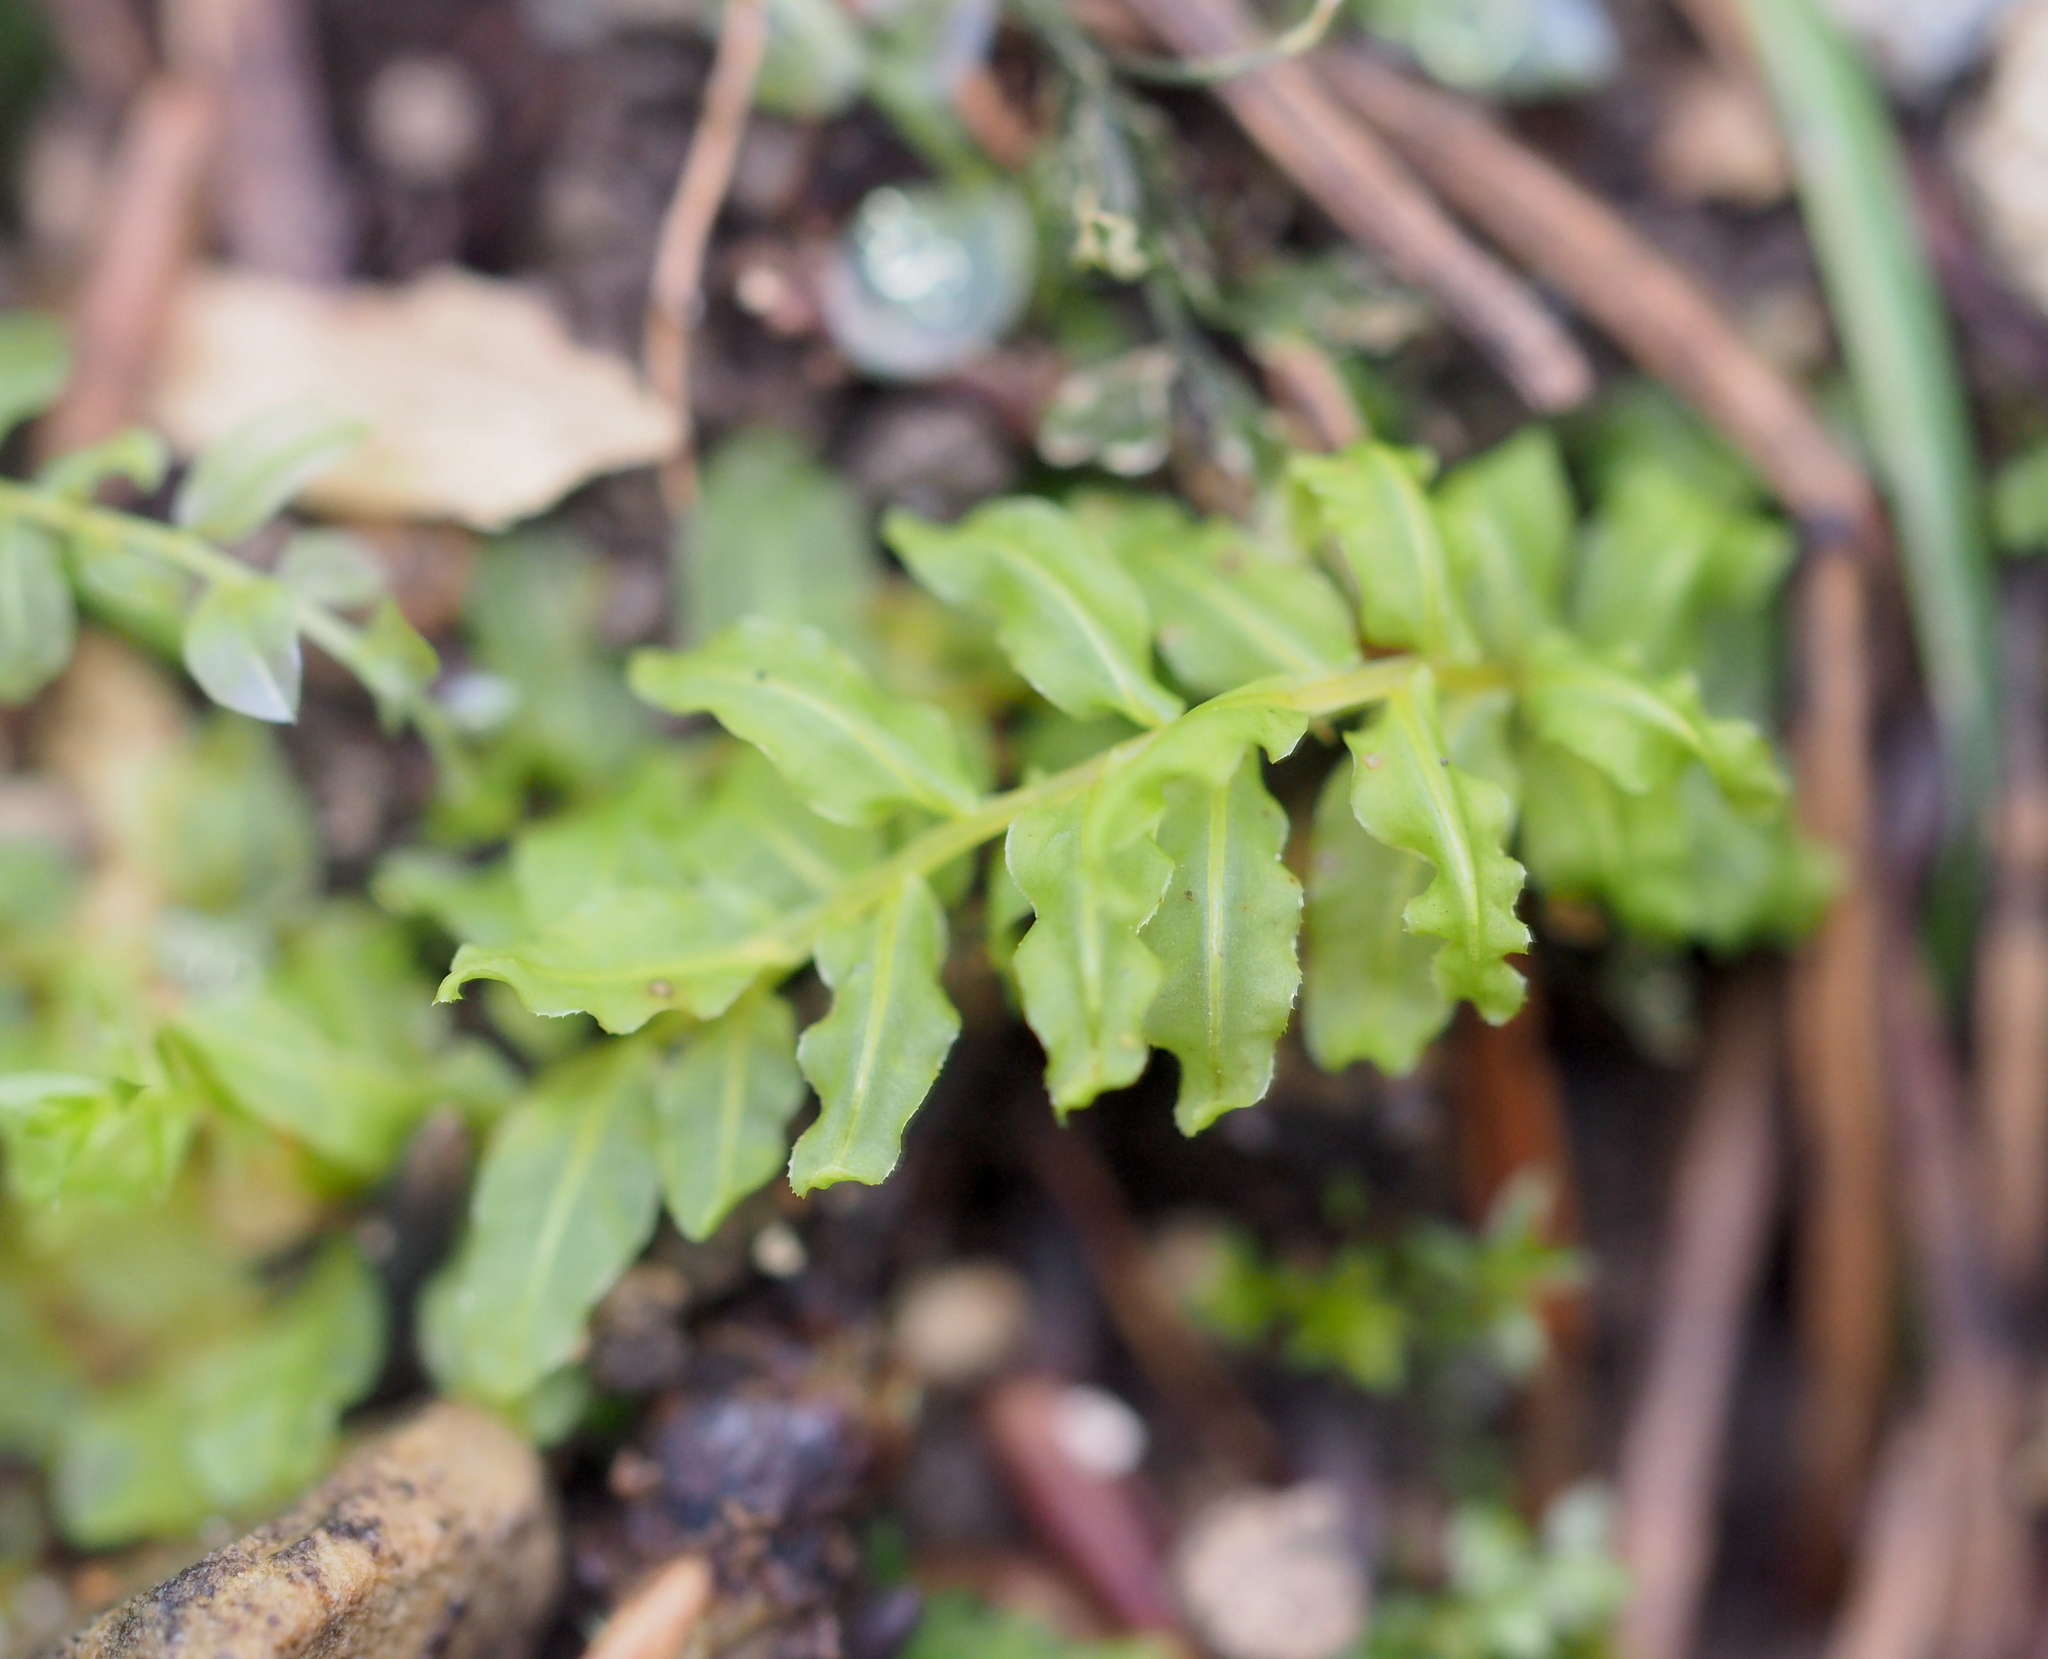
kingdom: Plantae
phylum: Bryophyta
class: Bryopsida
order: Bryales
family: Mniaceae
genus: Plagiomnium
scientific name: Plagiomnium undulatum
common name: Hart's-tongue thyme-moss
